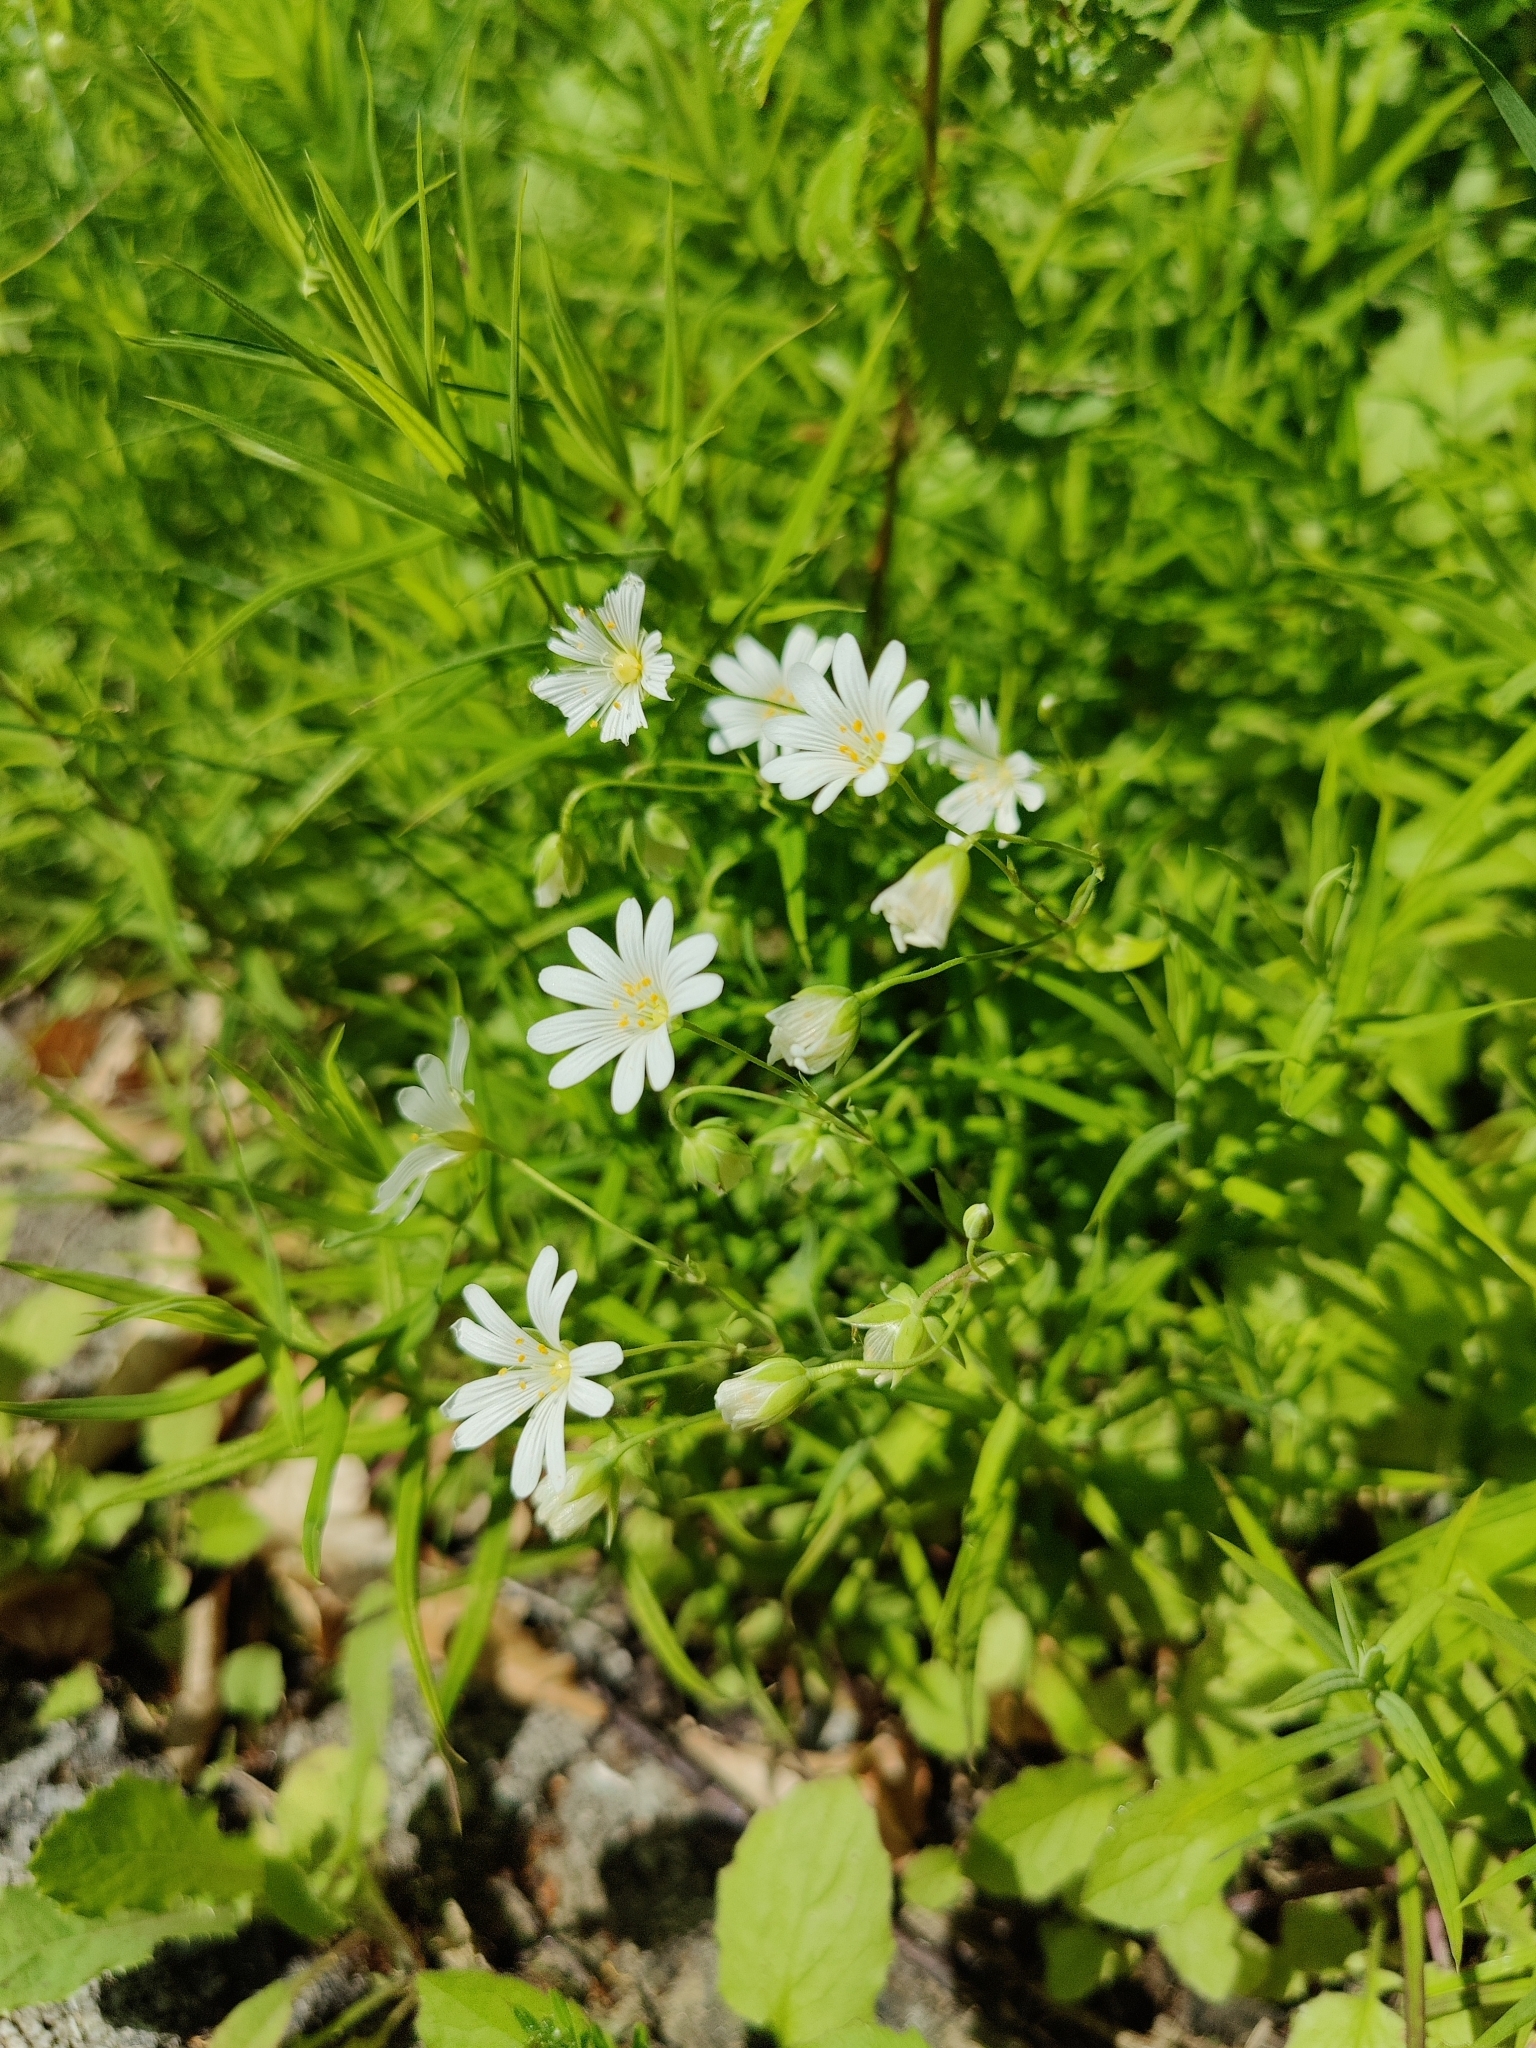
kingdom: Plantae
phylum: Tracheophyta
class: Magnoliopsida
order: Caryophyllales
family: Caryophyllaceae
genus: Rabelera
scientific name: Rabelera holostea
